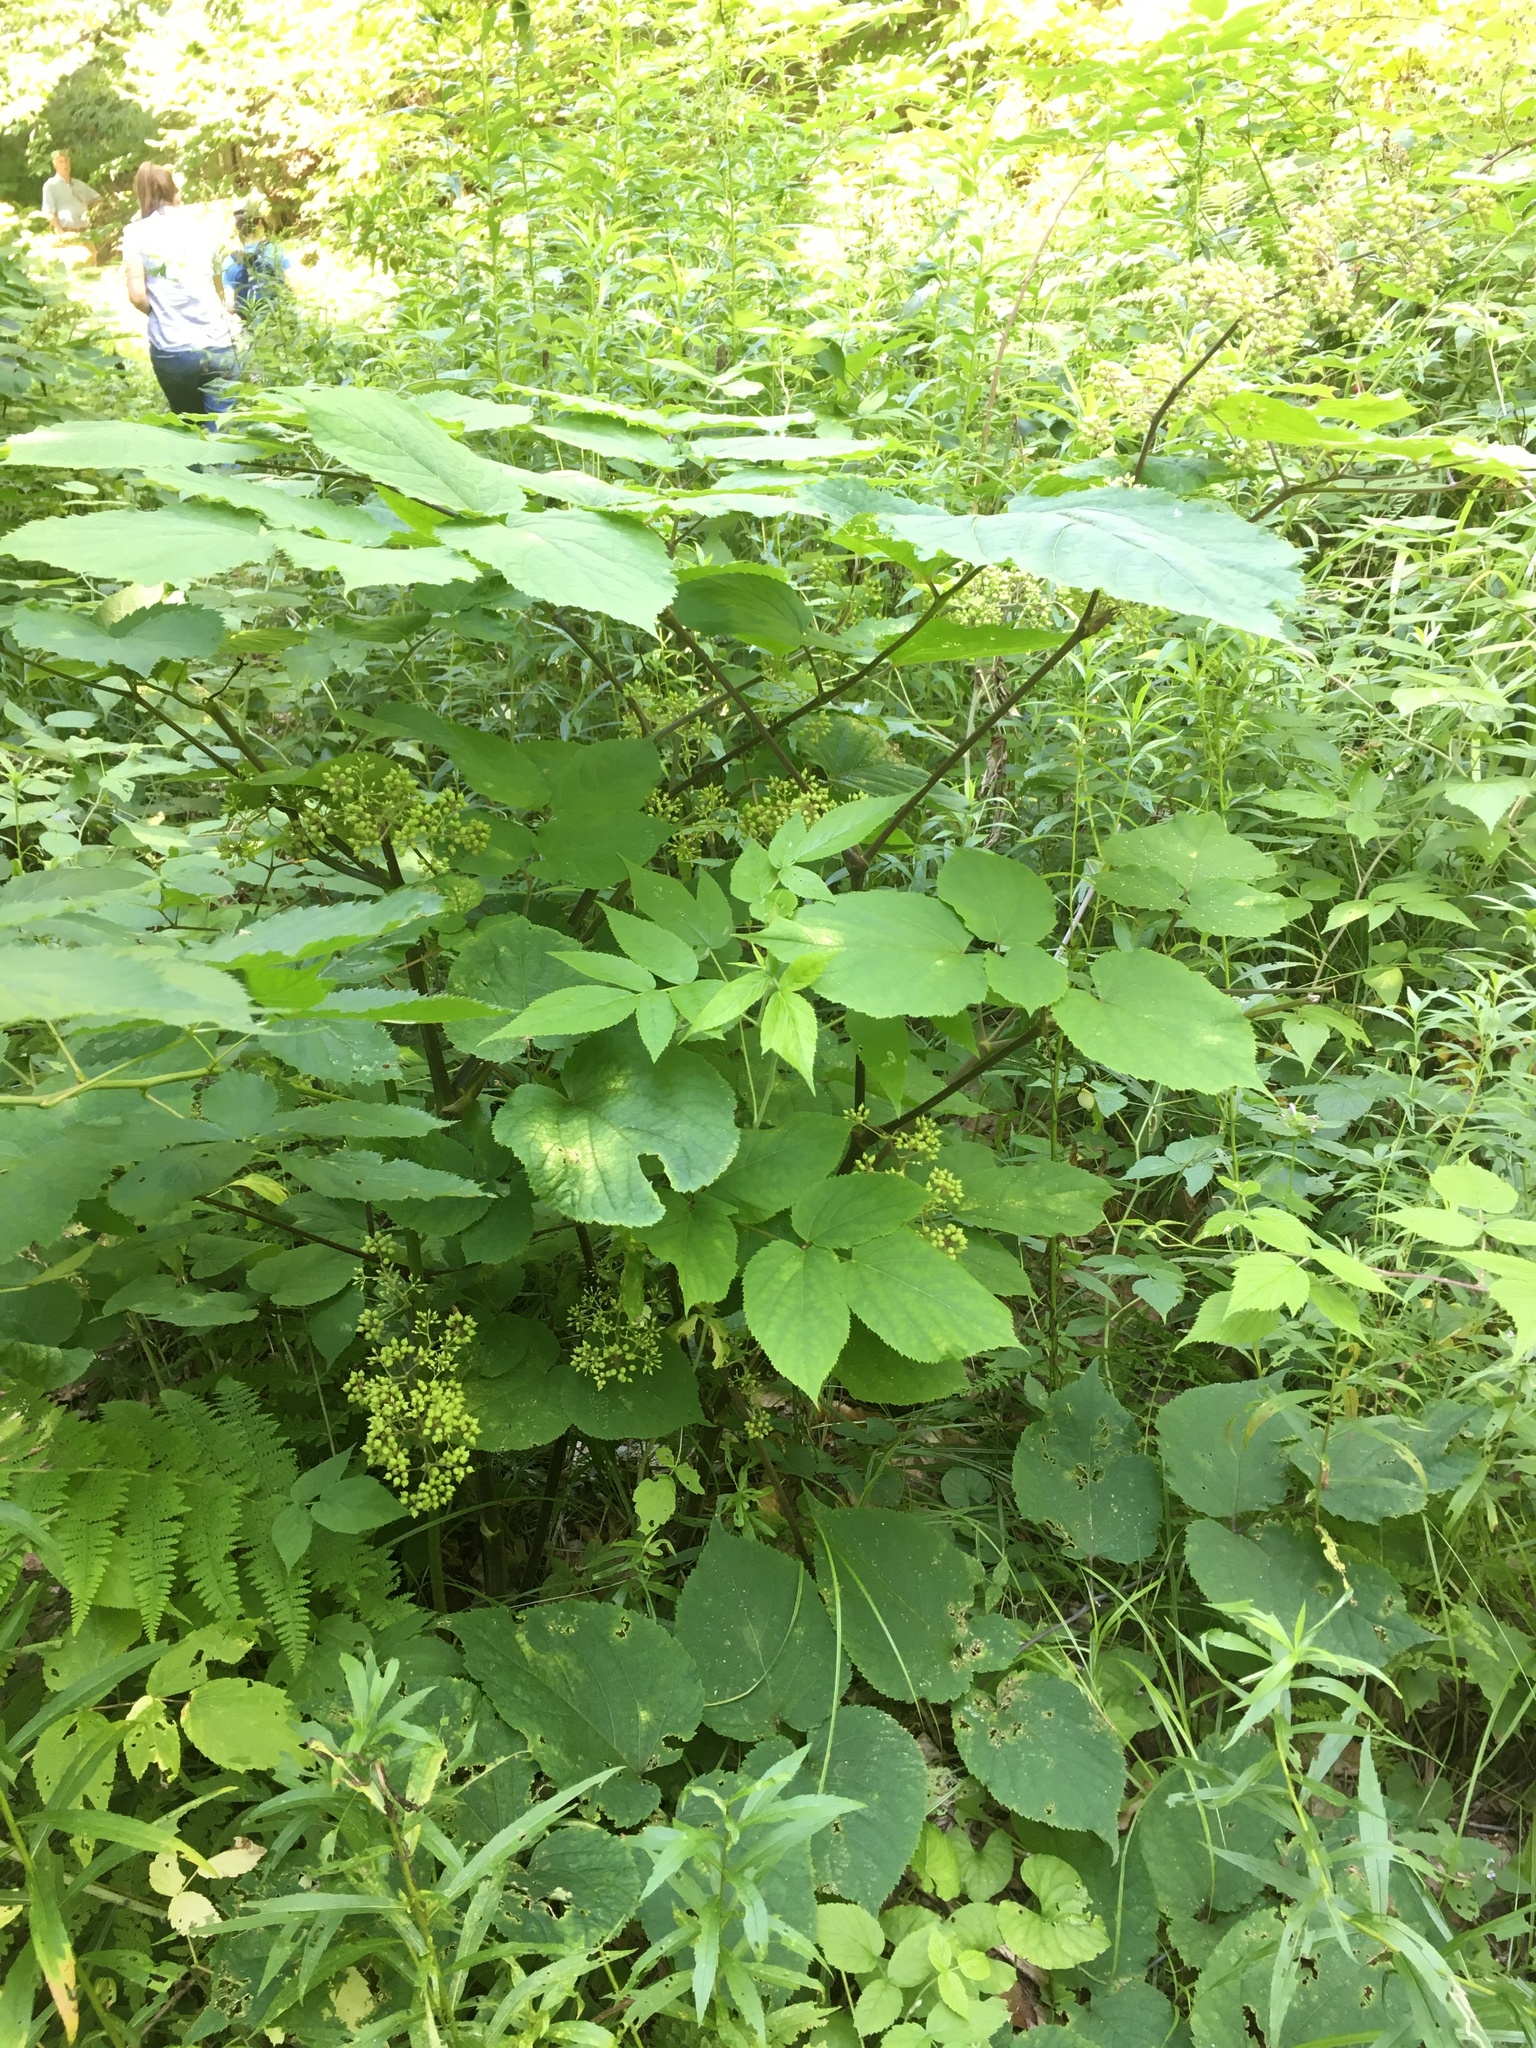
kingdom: Plantae
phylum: Tracheophyta
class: Magnoliopsida
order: Apiales
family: Araliaceae
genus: Aralia
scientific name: Aralia racemosa
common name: American-spikenard
